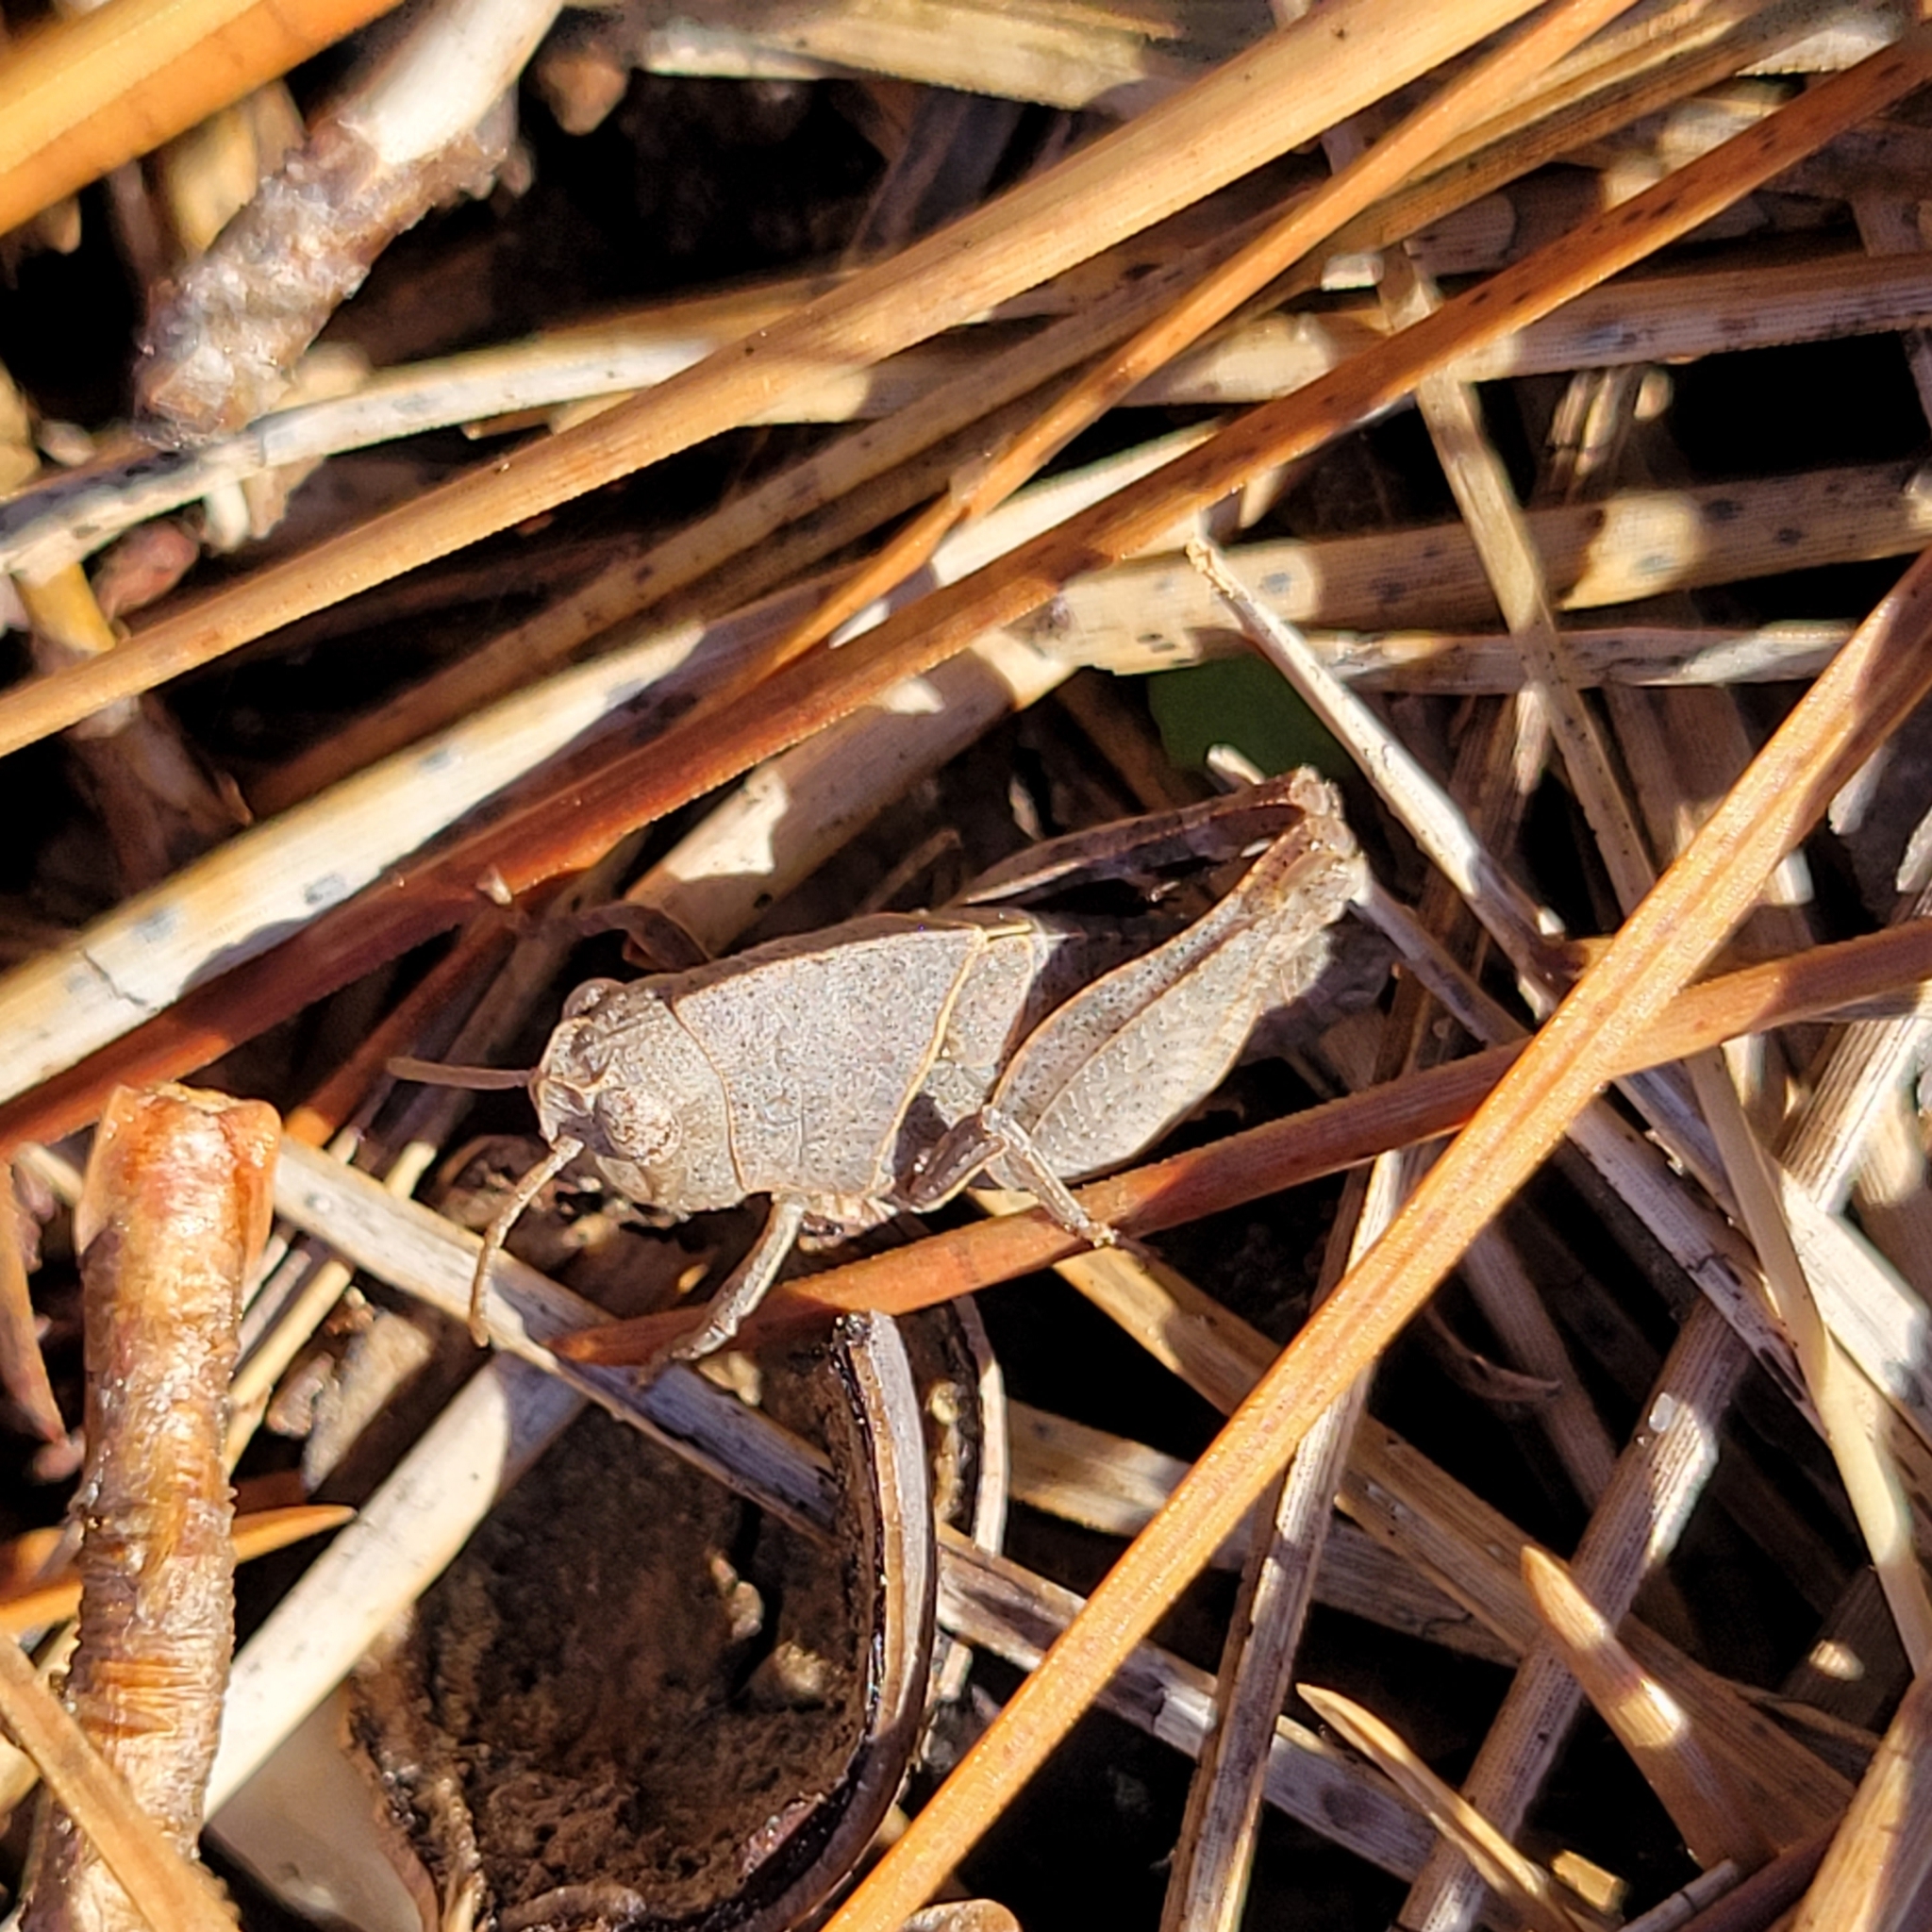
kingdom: Animalia
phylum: Arthropoda
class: Insecta
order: Orthoptera
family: Acrididae
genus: Arphia
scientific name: Arphia sulphurea
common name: Spring yellow-winged locust
